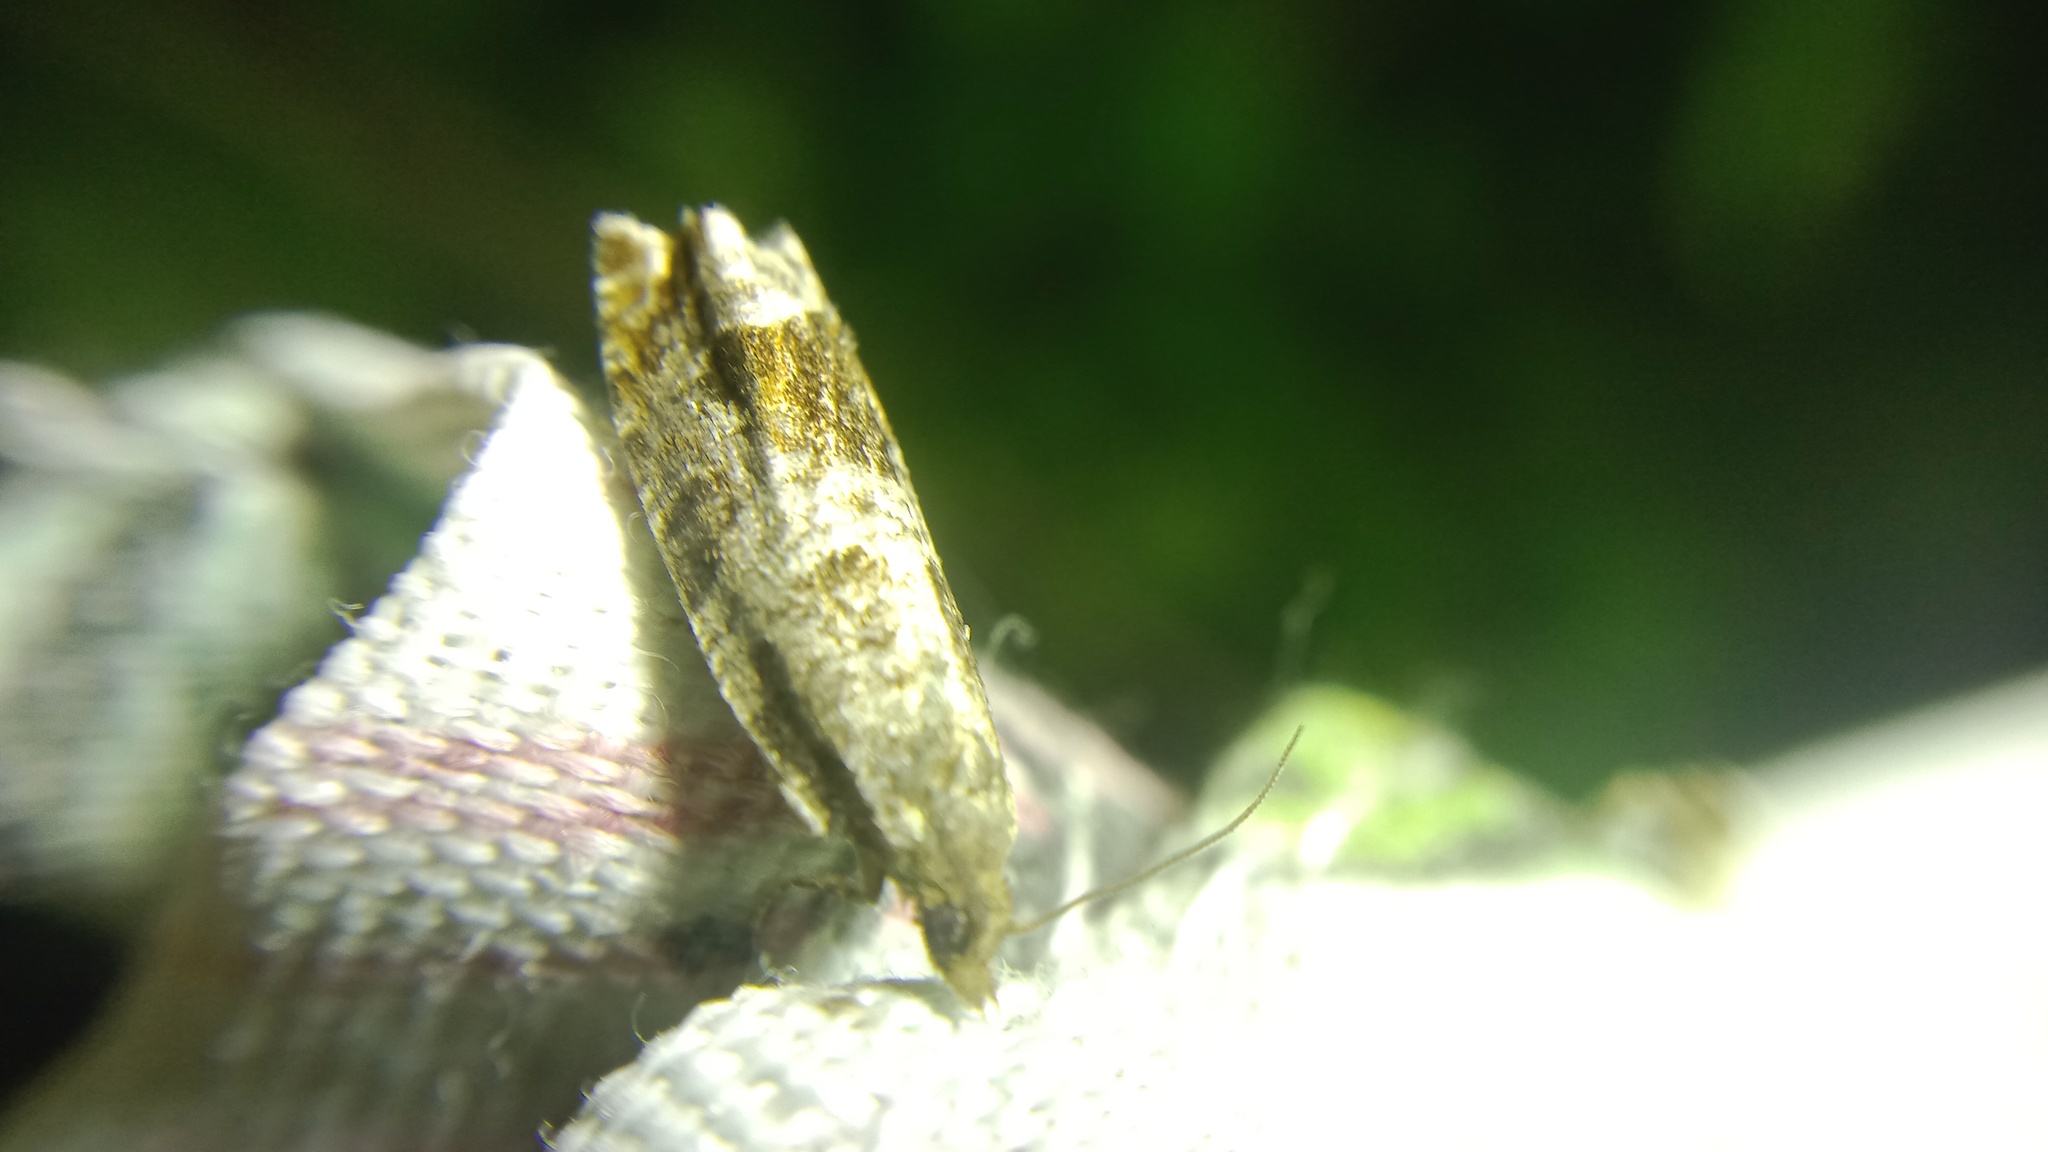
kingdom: Animalia
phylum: Arthropoda
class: Insecta
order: Lepidoptera
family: Tortricidae
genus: Ancylis
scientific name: Ancylis achatana
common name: Triangle-marked roller
